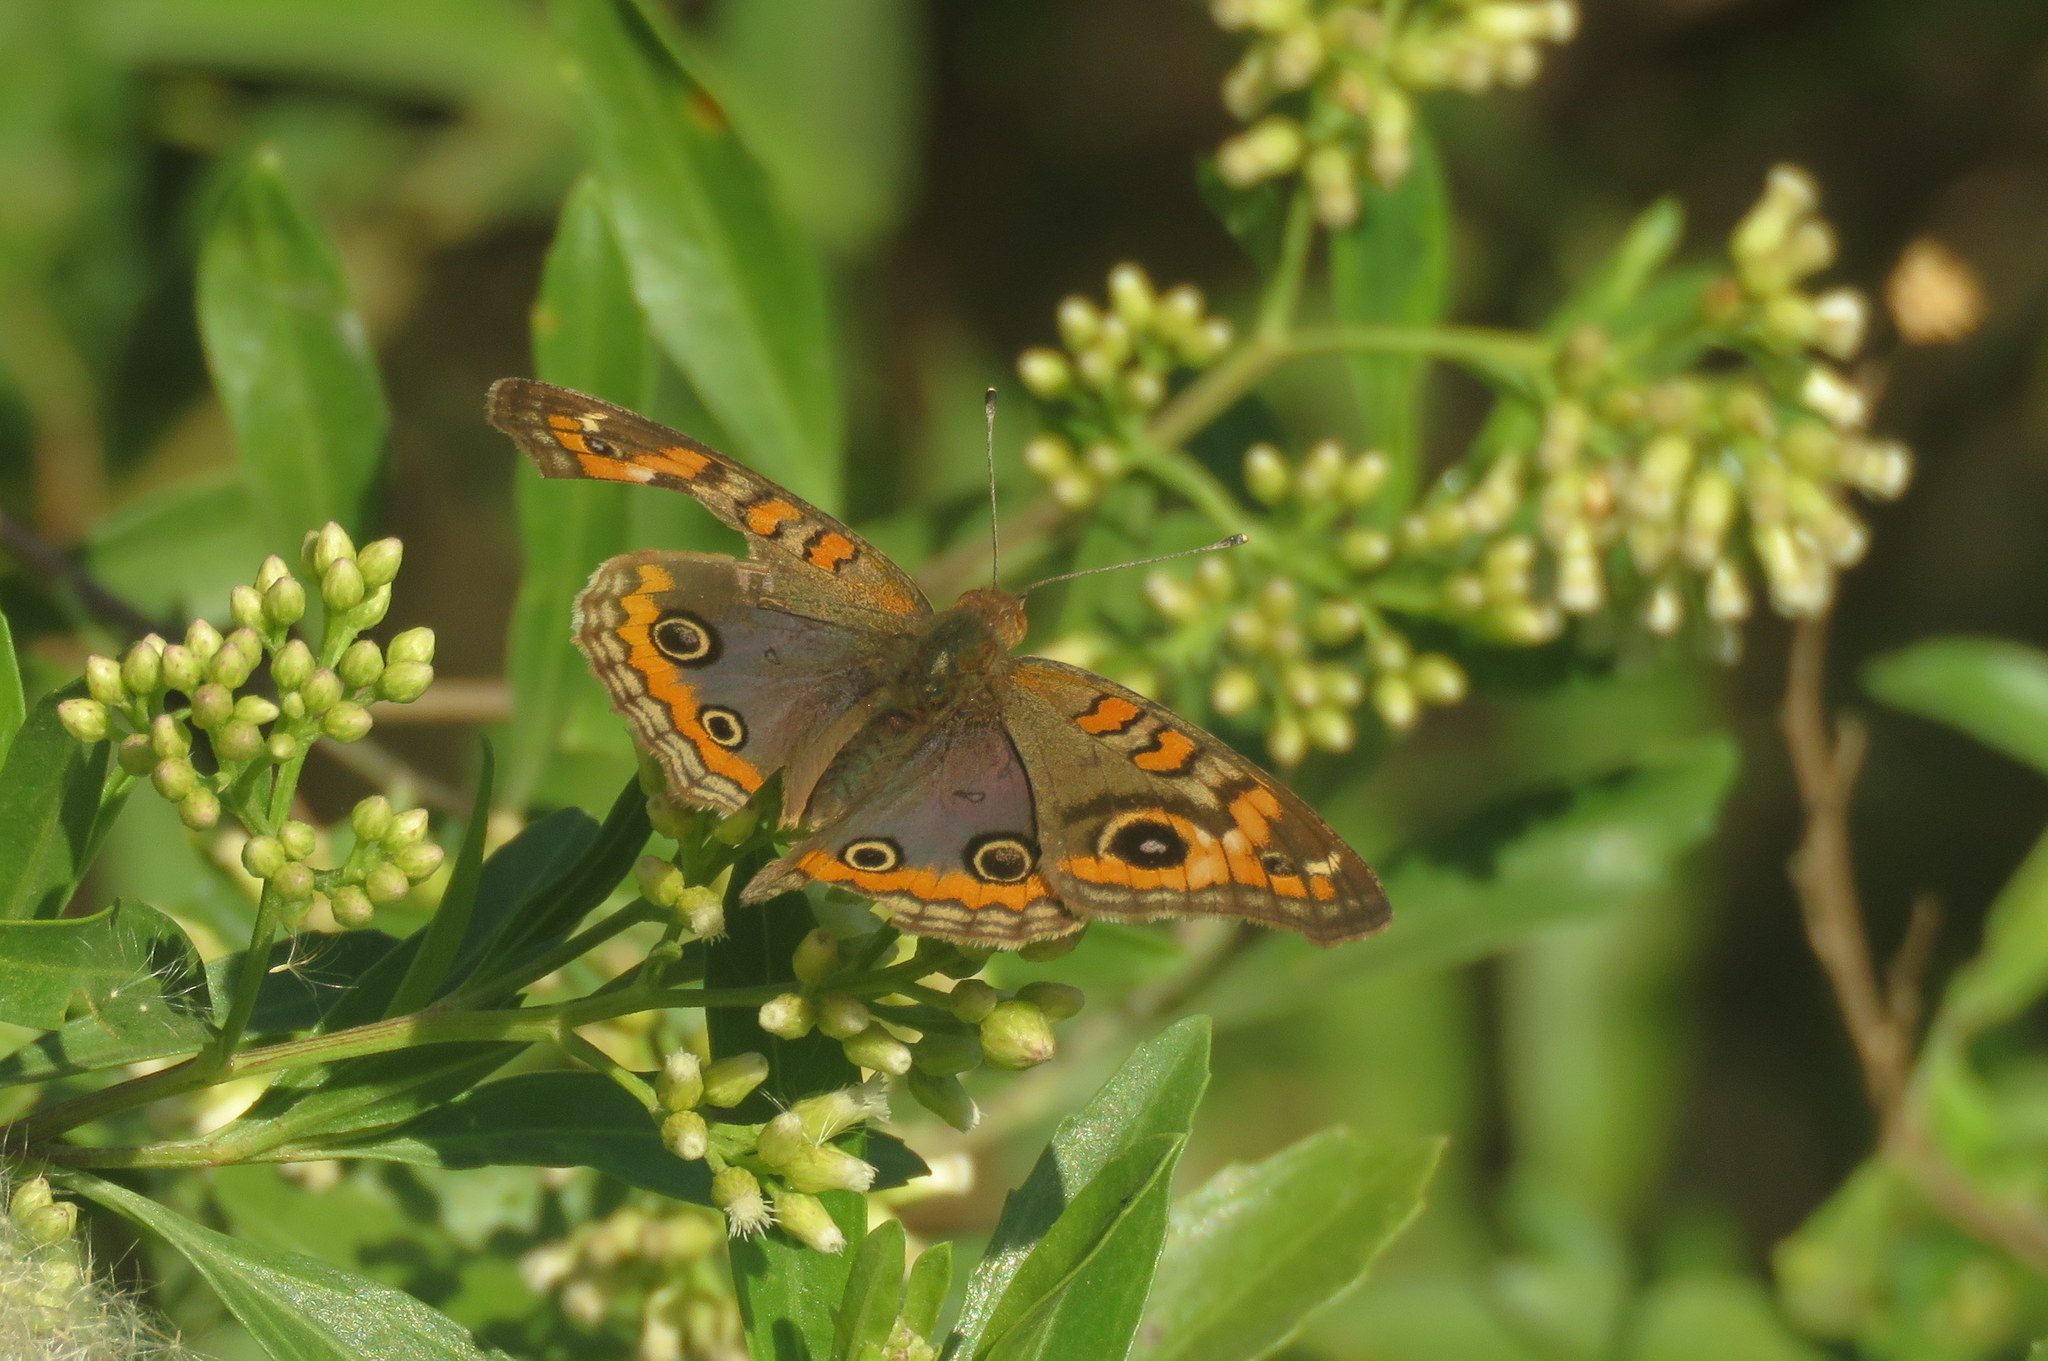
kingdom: Animalia
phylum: Arthropoda
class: Insecta
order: Lepidoptera
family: Nymphalidae
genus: Junonia
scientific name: Junonia lavinia
